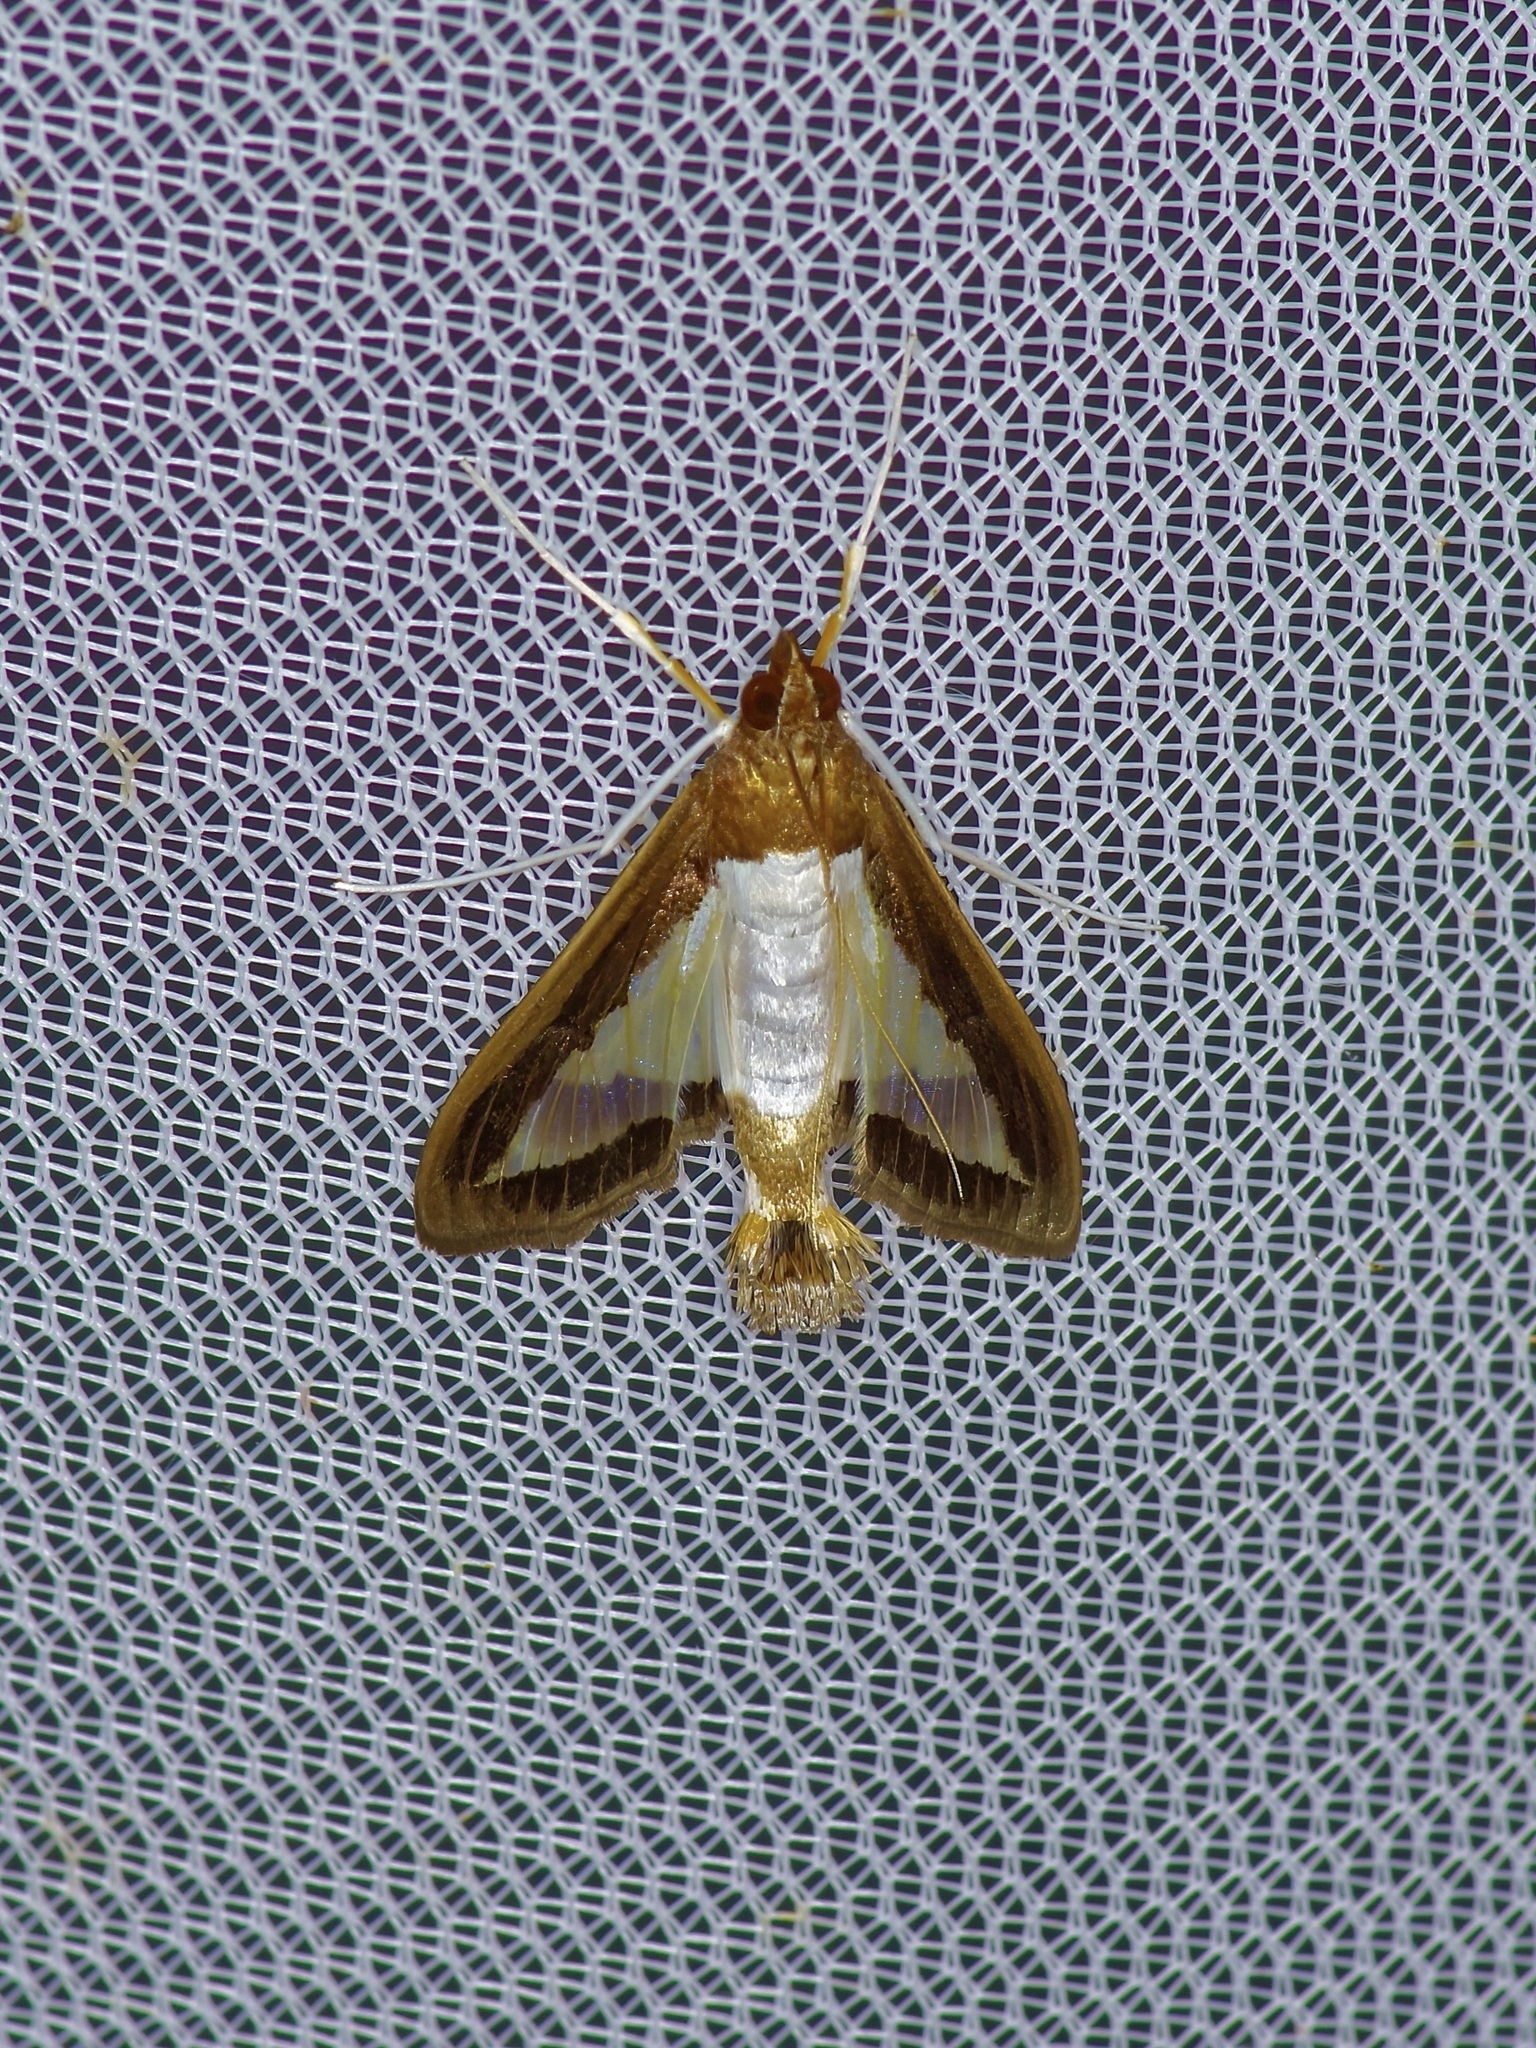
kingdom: Animalia
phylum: Arthropoda
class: Insecta
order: Lepidoptera
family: Crambidae
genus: Diaphania
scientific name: Diaphania hyalinata
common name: Melonworm
